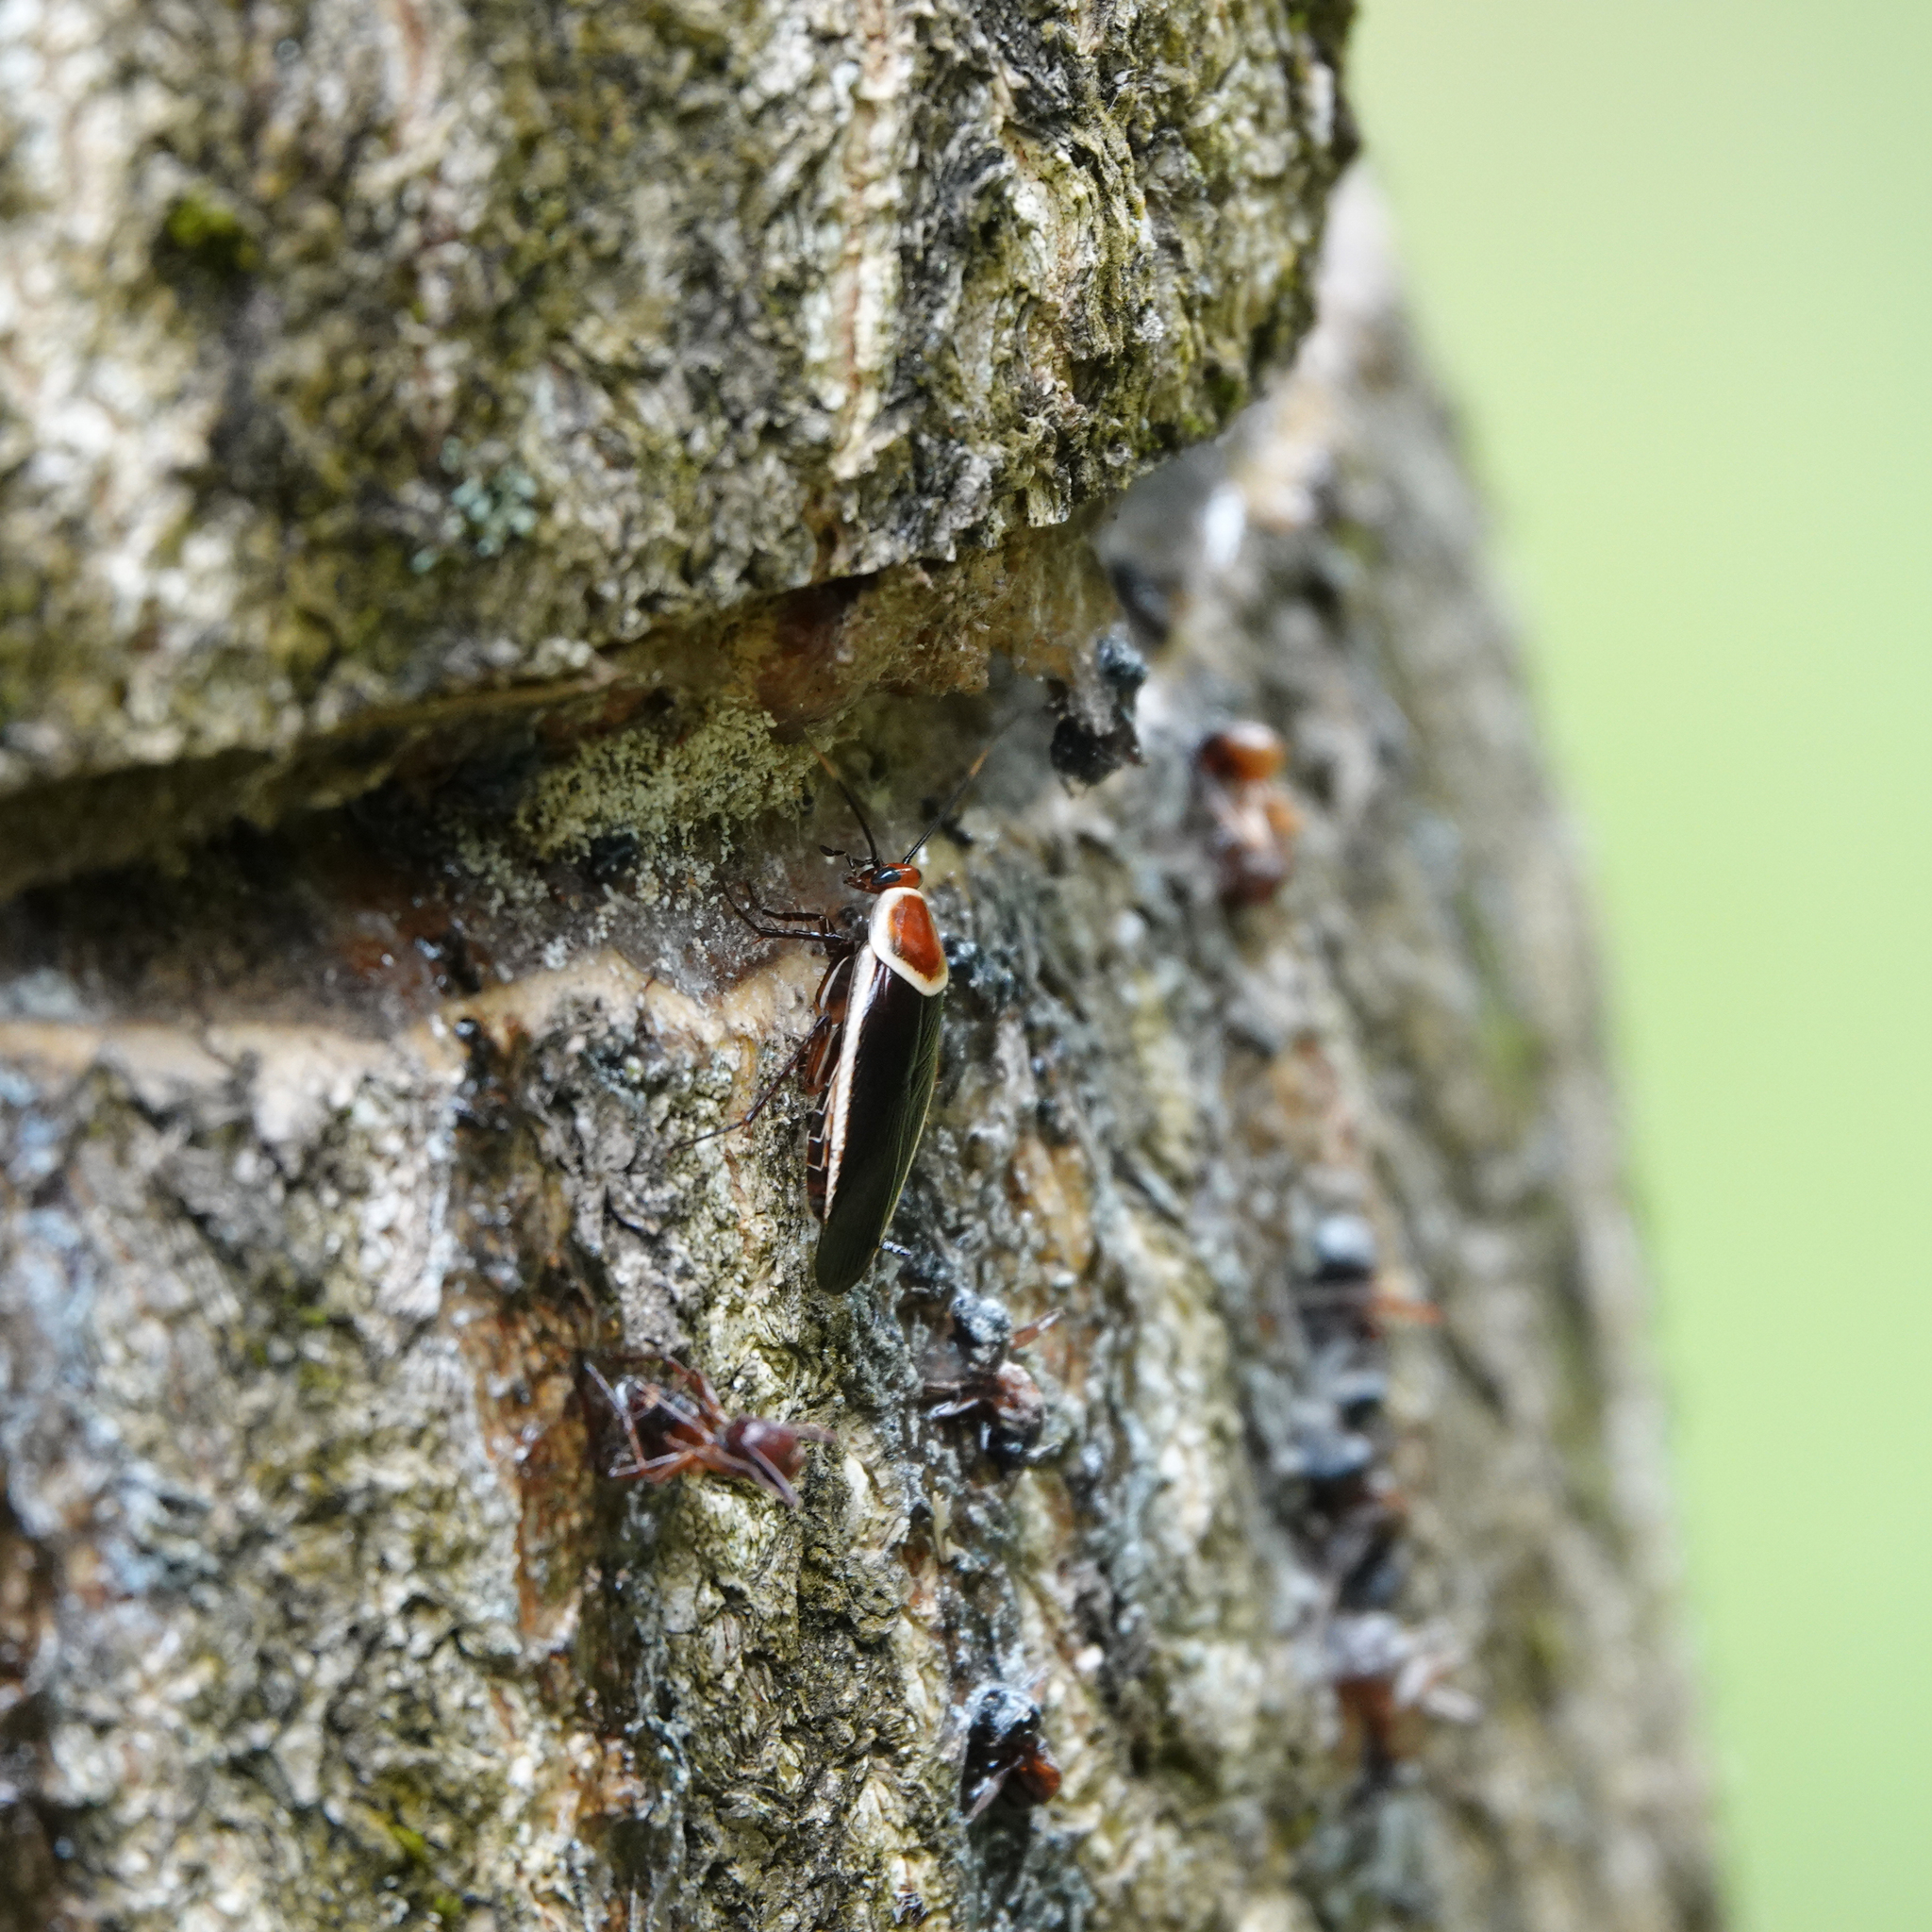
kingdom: Animalia
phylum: Arthropoda
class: Insecta
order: Blattodea
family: Ectobiidae
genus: Pseudomops
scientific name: Pseudomops septentrionalis
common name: Pale-bordered field cockroach
